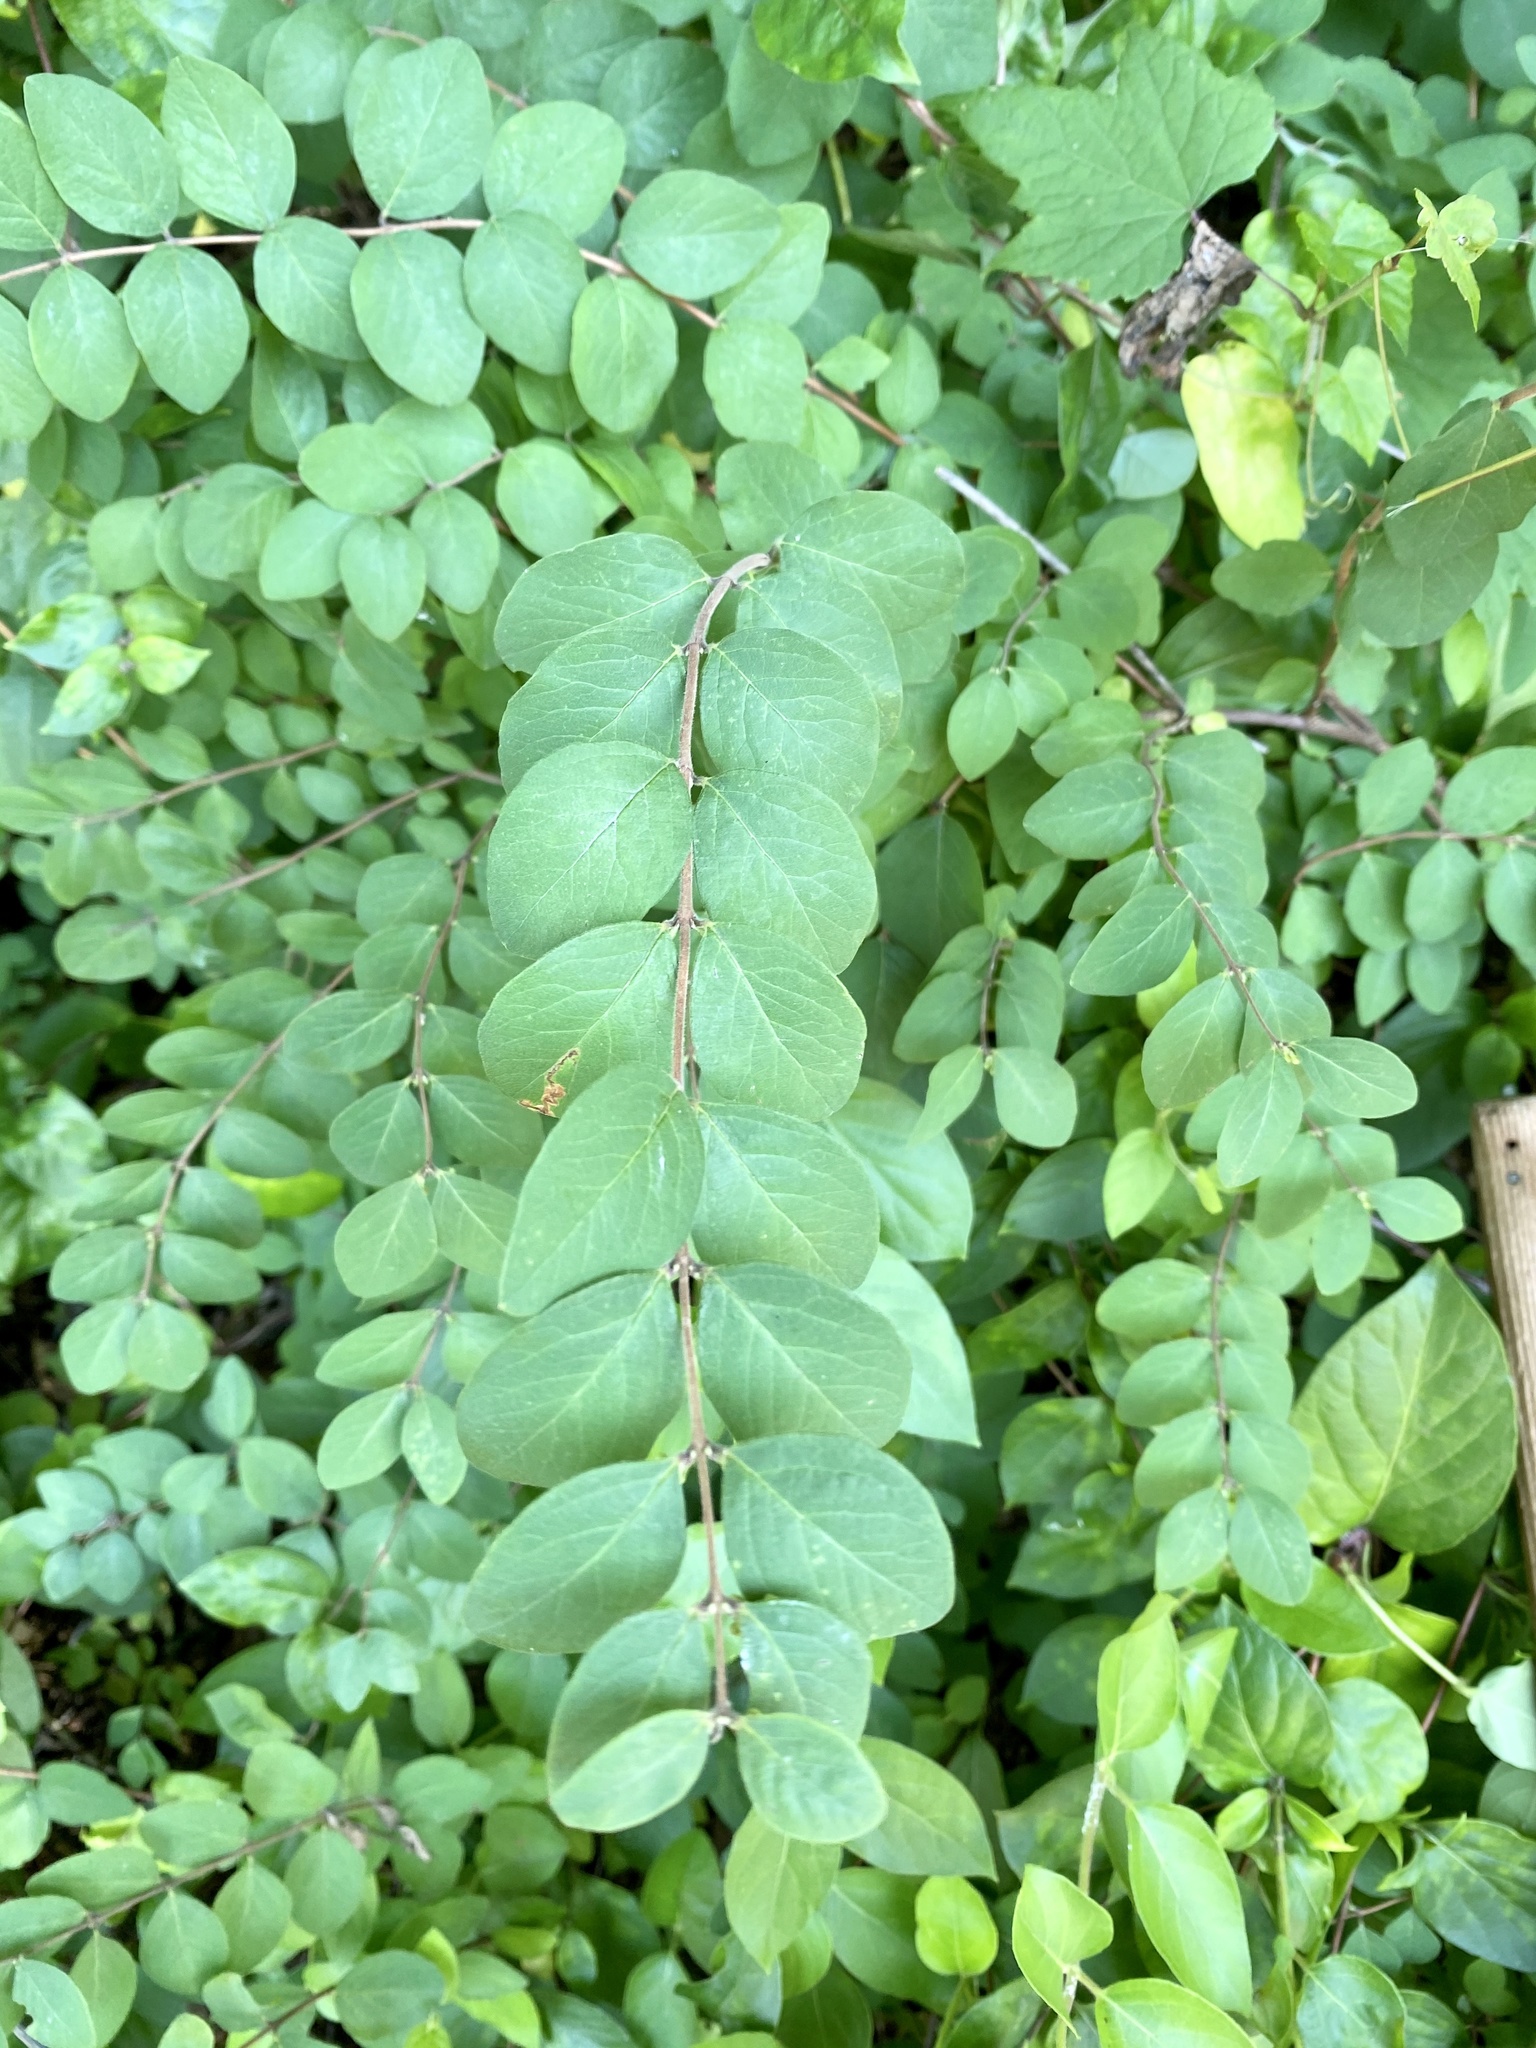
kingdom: Plantae
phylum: Tracheophyta
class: Magnoliopsida
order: Dipsacales
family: Caprifoliaceae
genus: Symphoricarpos
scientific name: Symphoricarpos orbiculatus
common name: Coralberry
